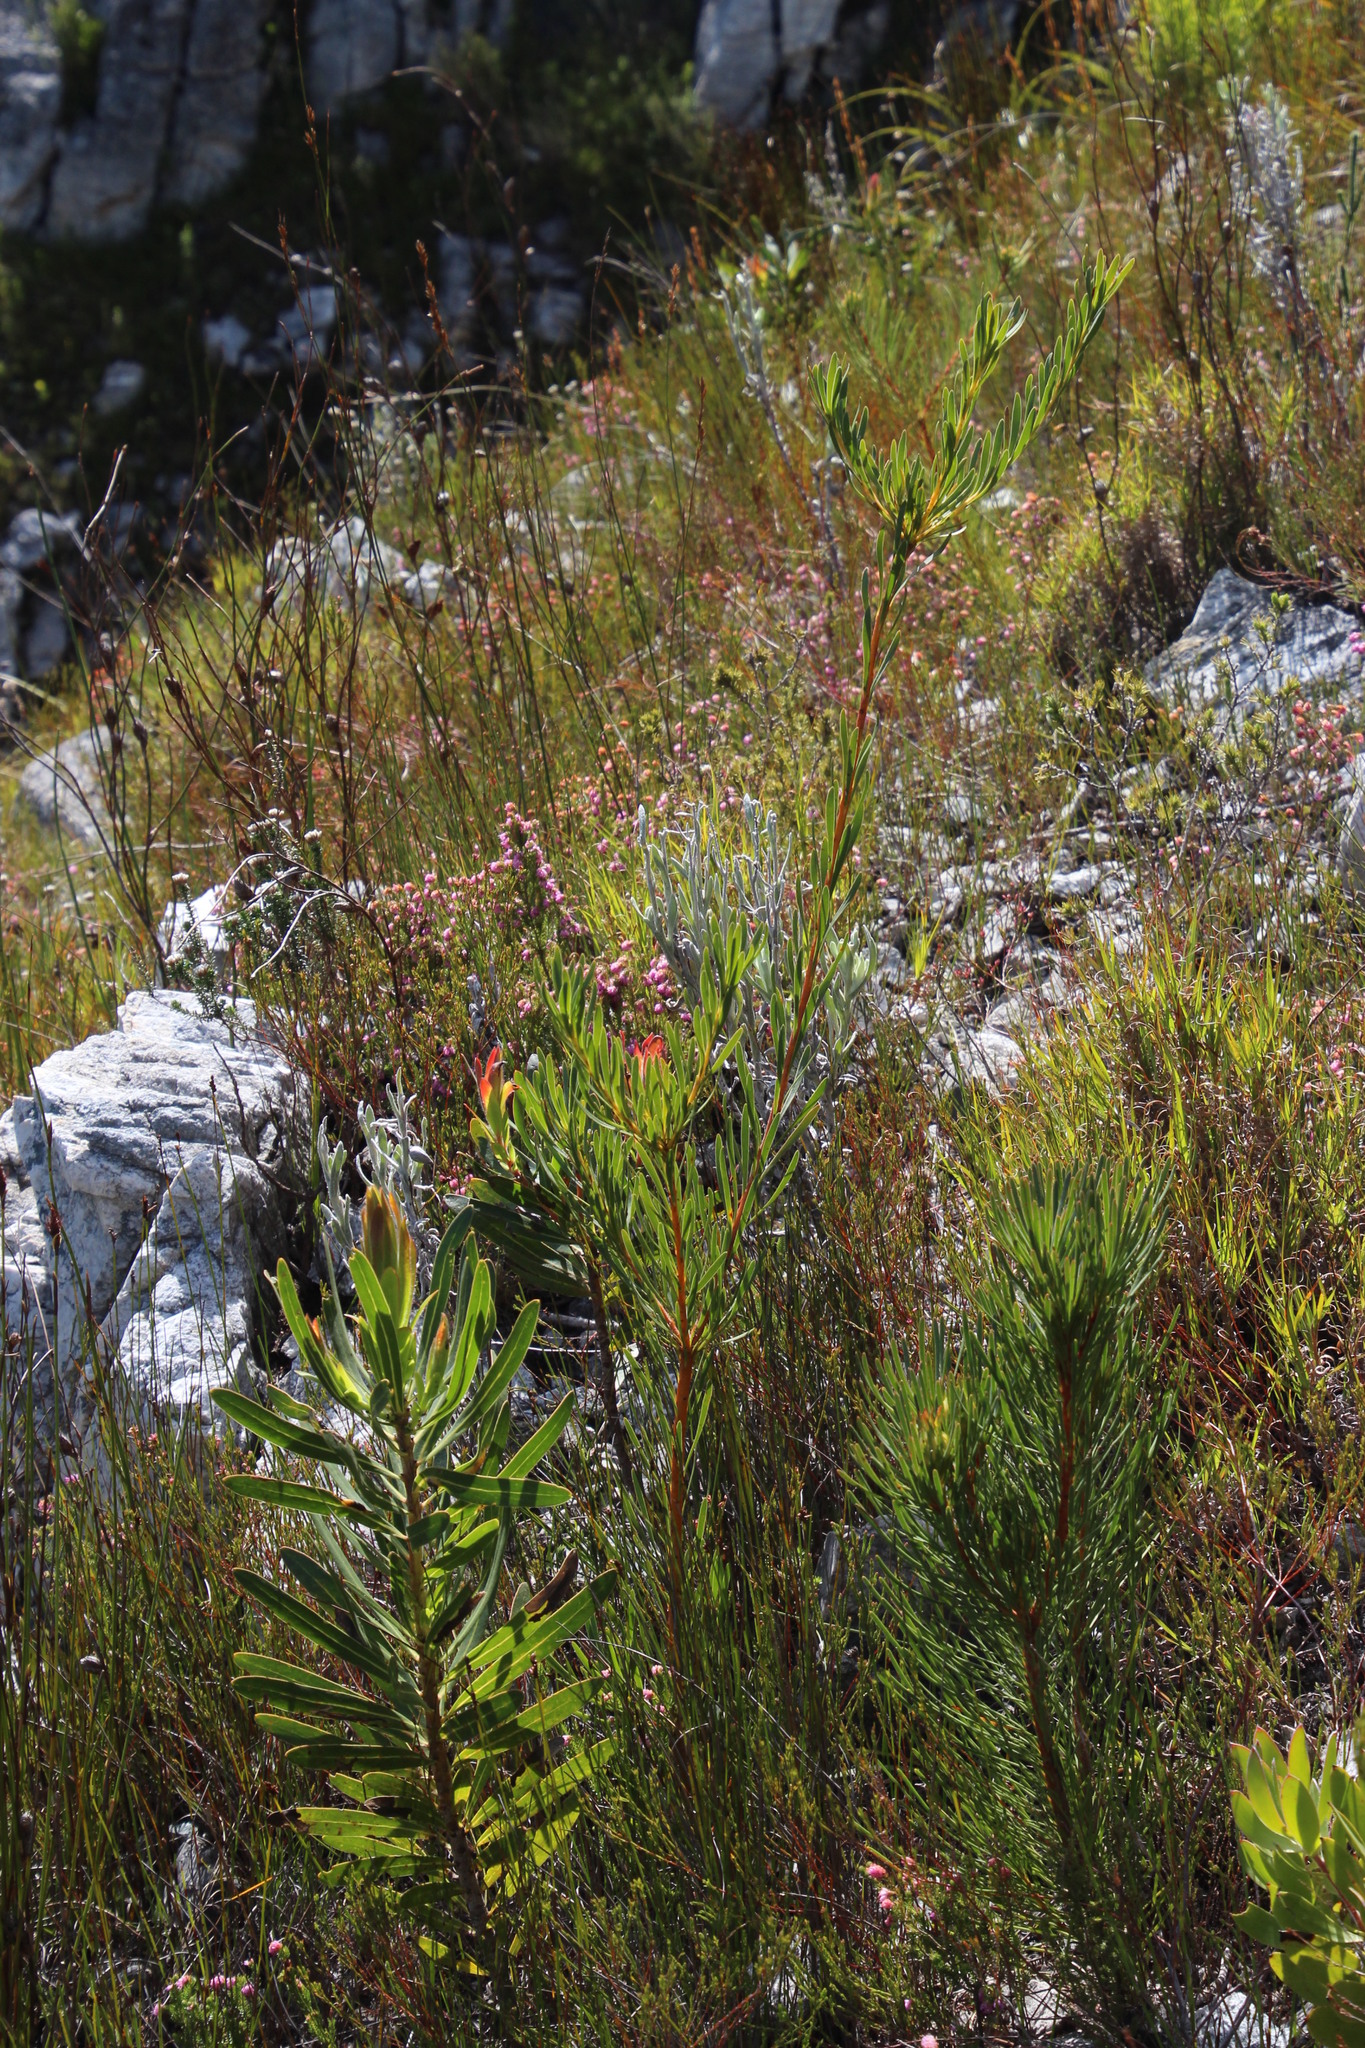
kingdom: Plantae
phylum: Tracheophyta
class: Magnoliopsida
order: Proteales
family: Proteaceae
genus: Aulax
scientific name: Aulax
